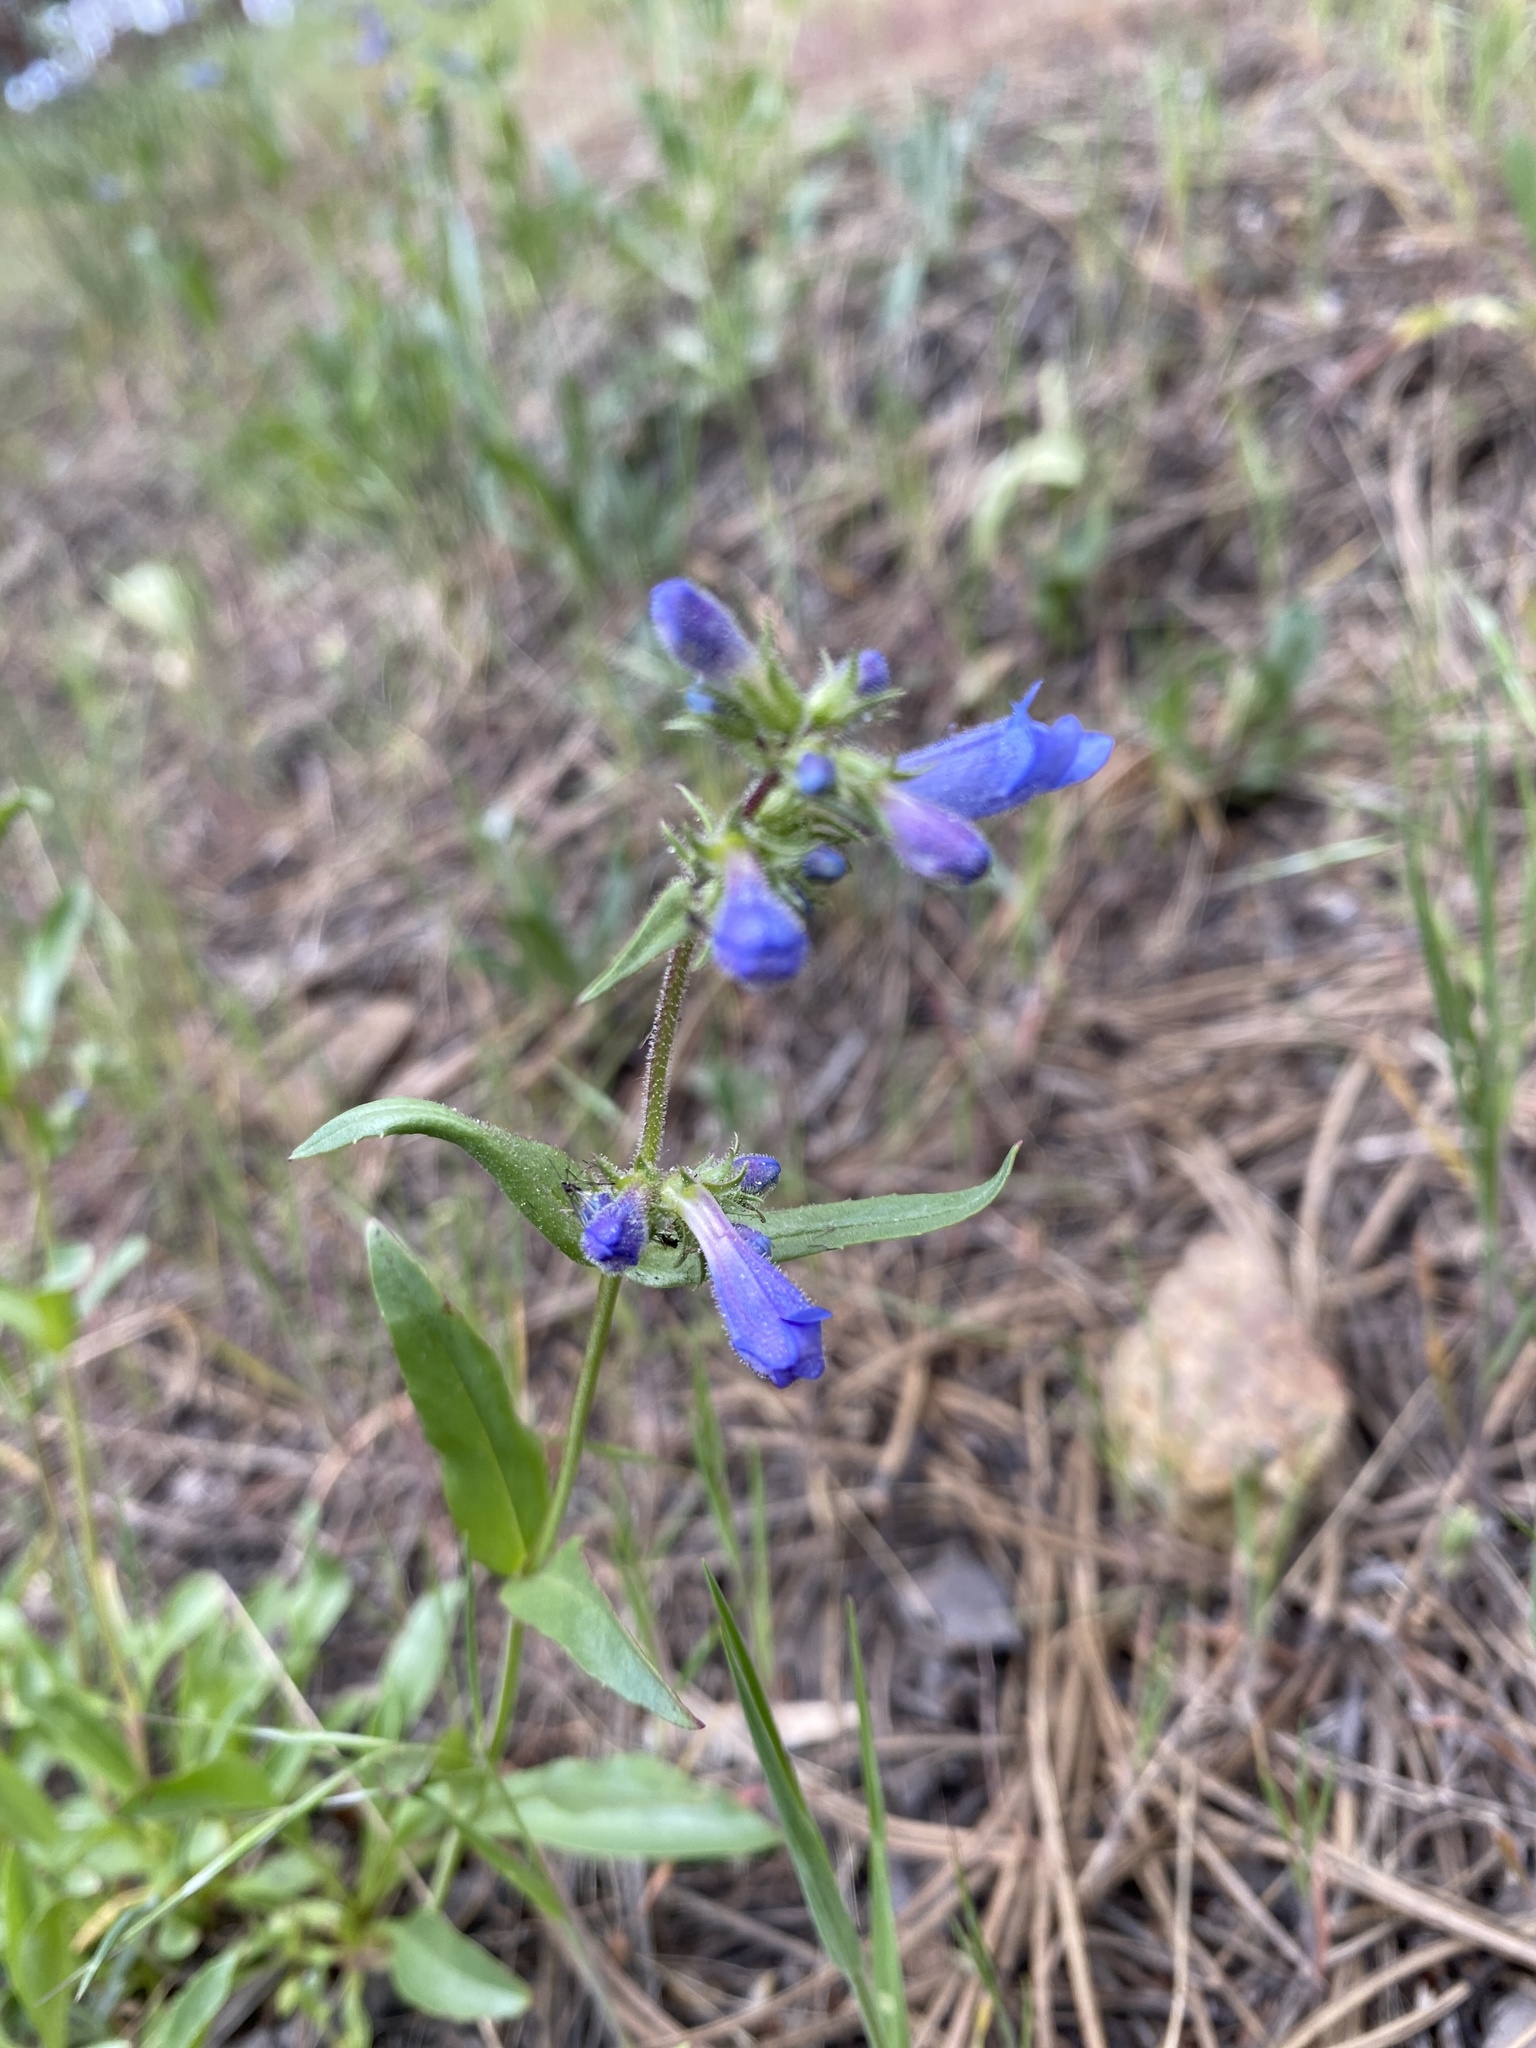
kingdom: Plantae
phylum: Tracheophyta
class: Magnoliopsida
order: Lamiales
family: Plantaginaceae
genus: Penstemon
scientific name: Penstemon virens
